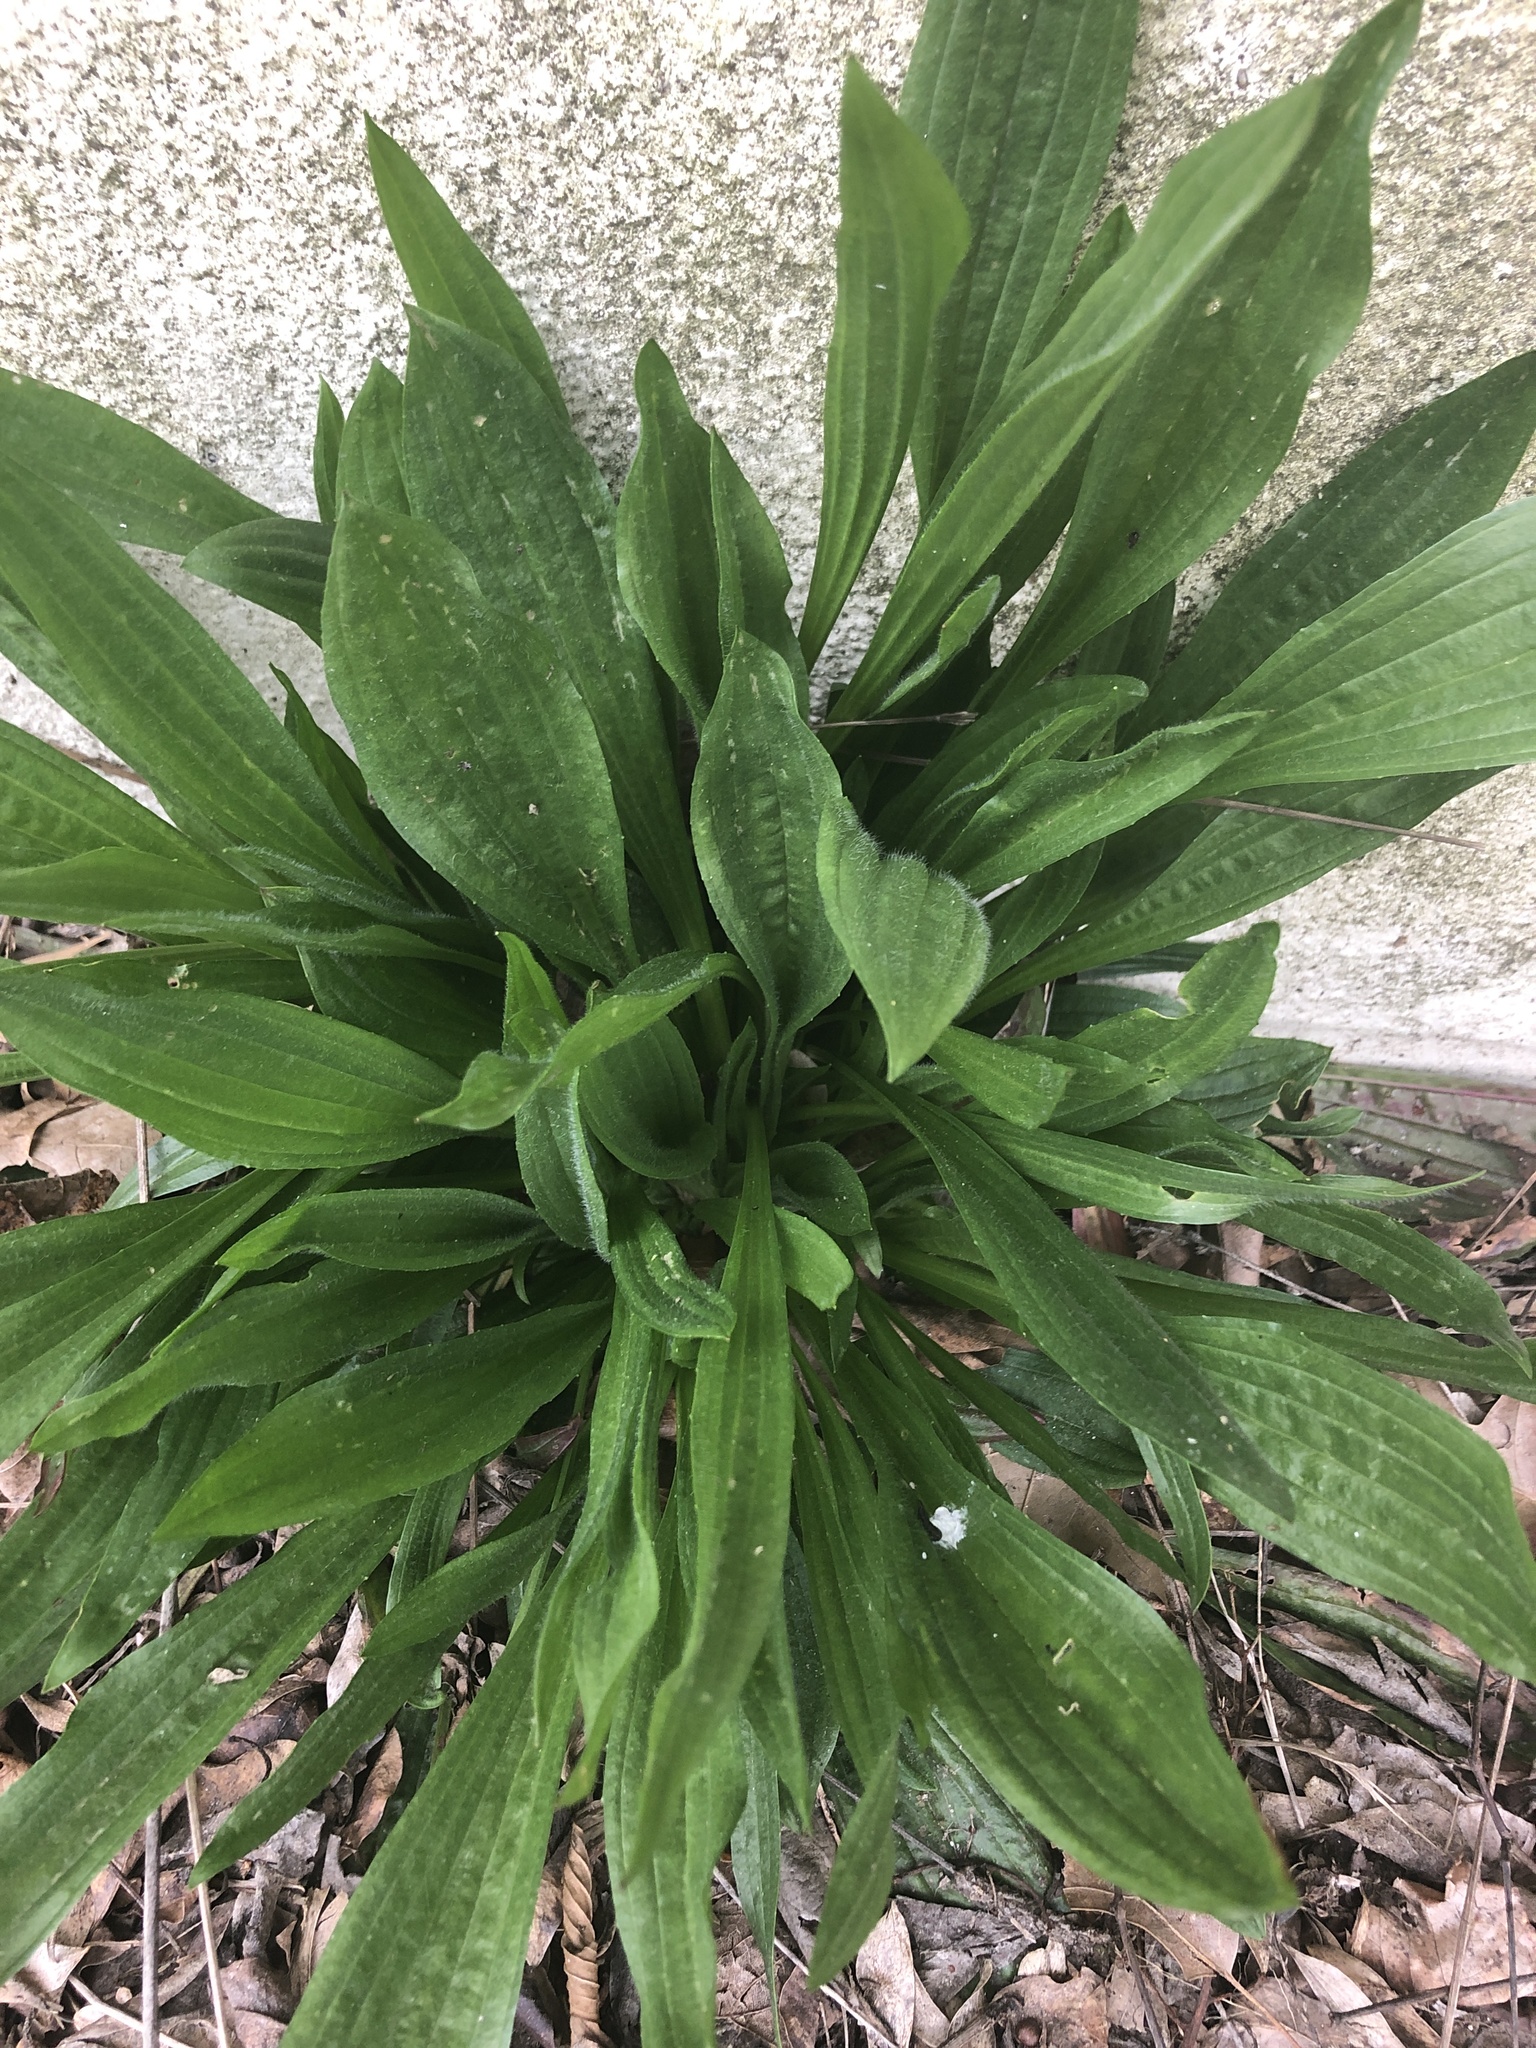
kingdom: Plantae
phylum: Tracheophyta
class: Magnoliopsida
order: Lamiales
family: Plantaginaceae
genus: Plantago
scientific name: Plantago lanceolata
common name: Ribwort plantain
